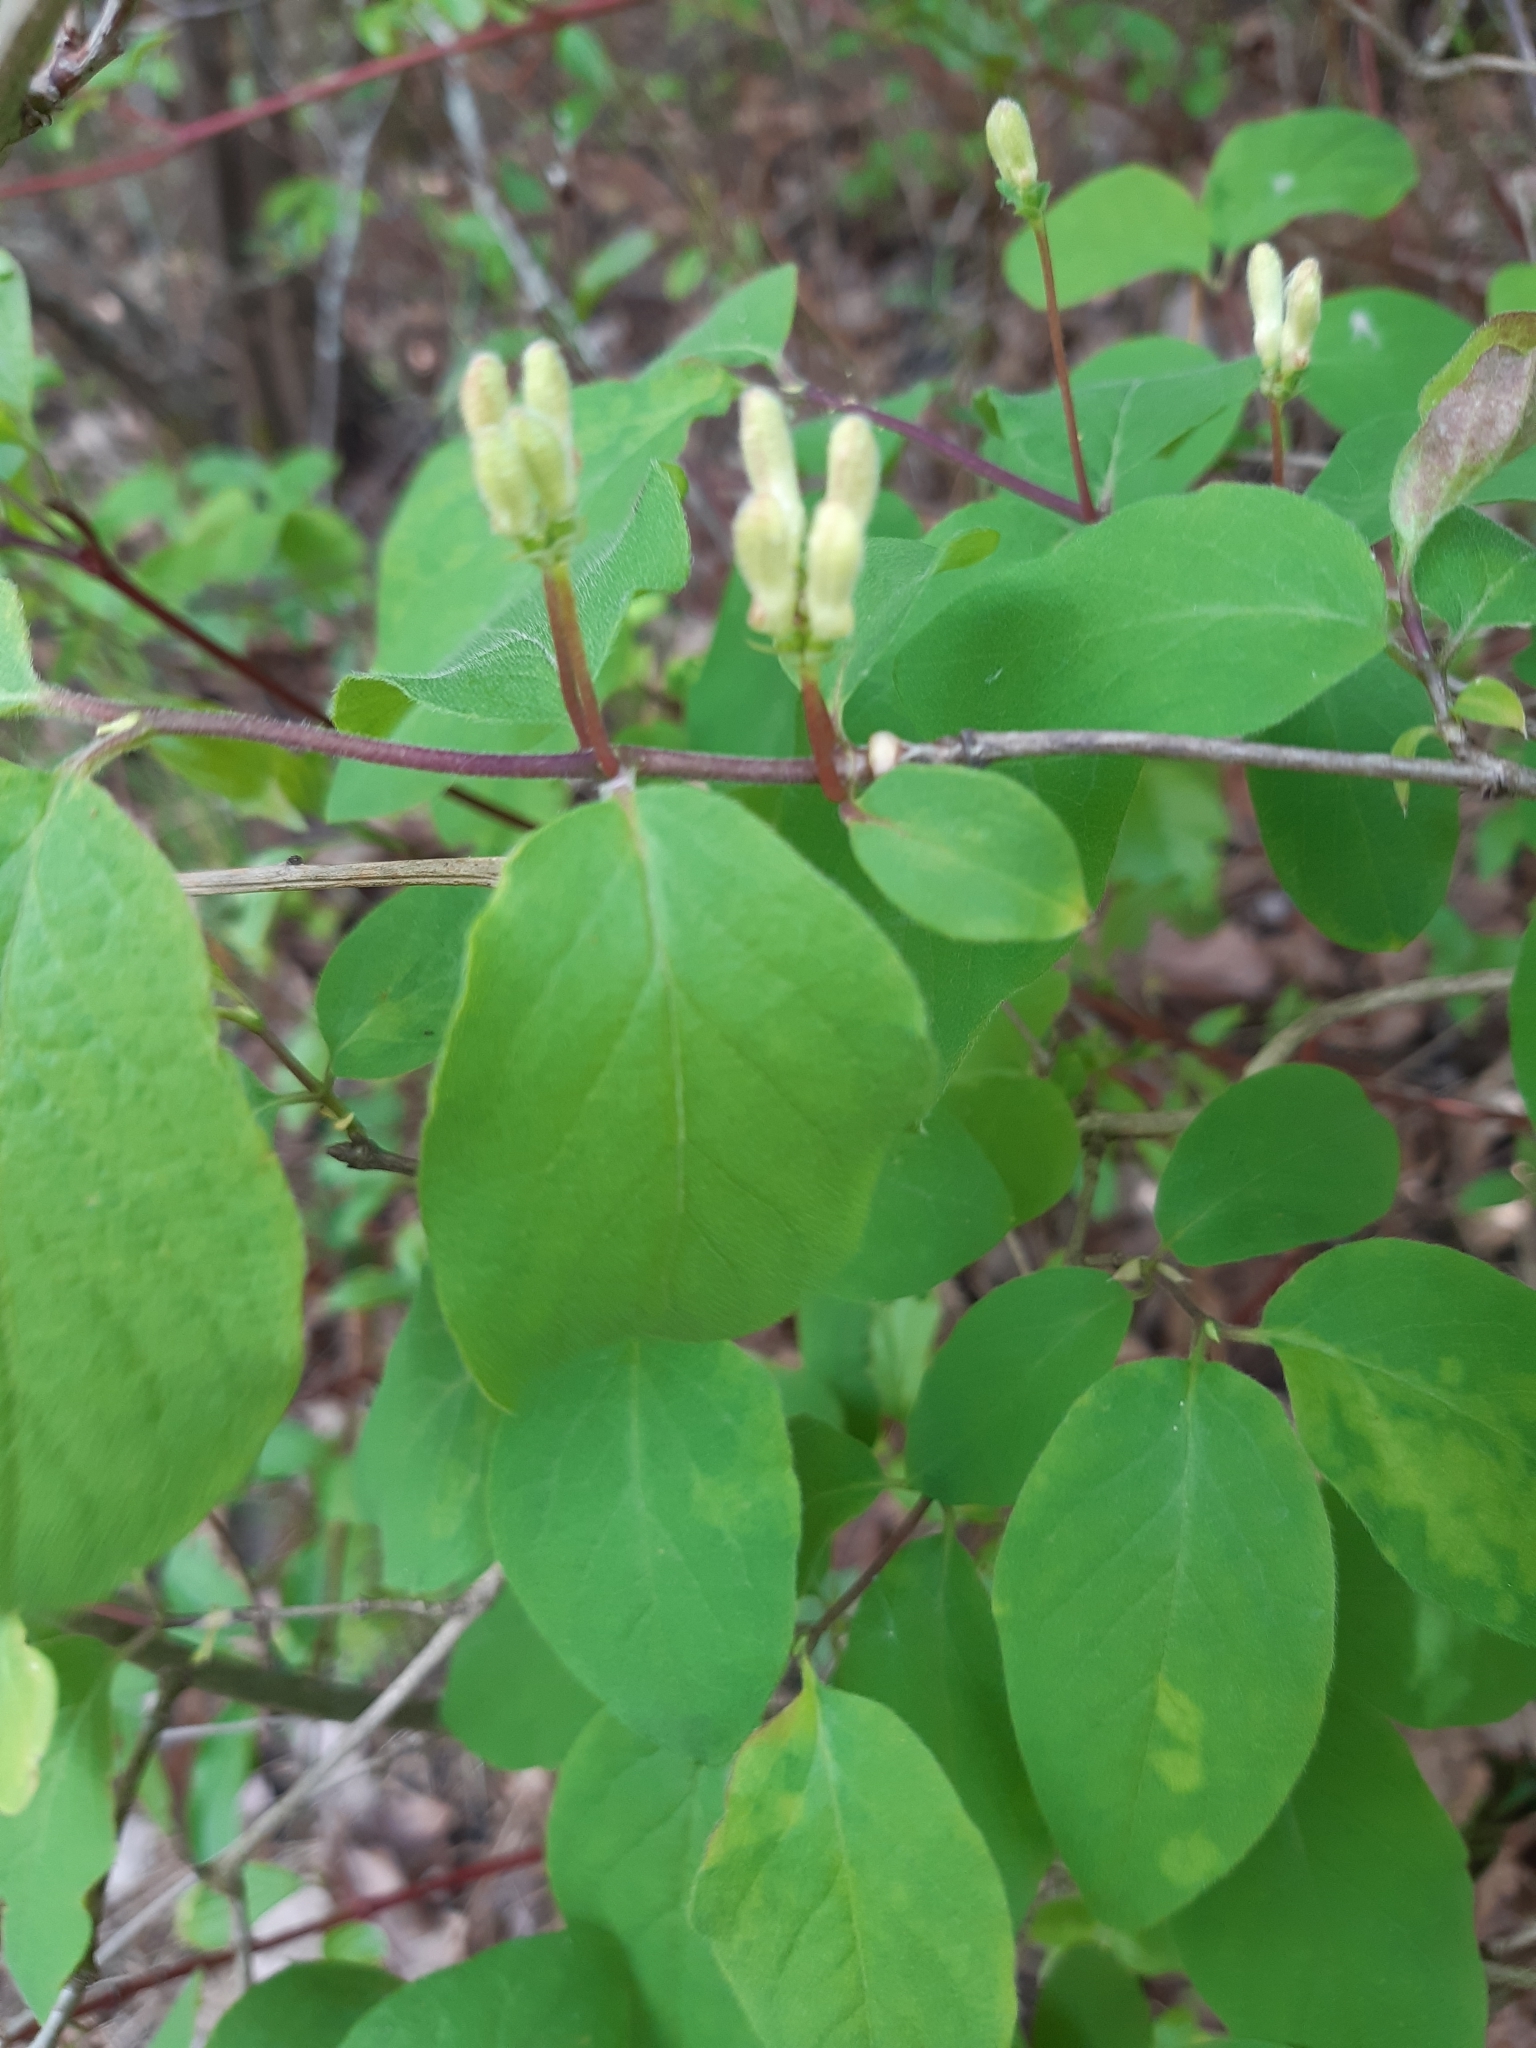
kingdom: Plantae
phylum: Tracheophyta
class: Magnoliopsida
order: Dipsacales
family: Caprifoliaceae
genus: Lonicera
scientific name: Lonicera xylosteum
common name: Fly honeysuckle
